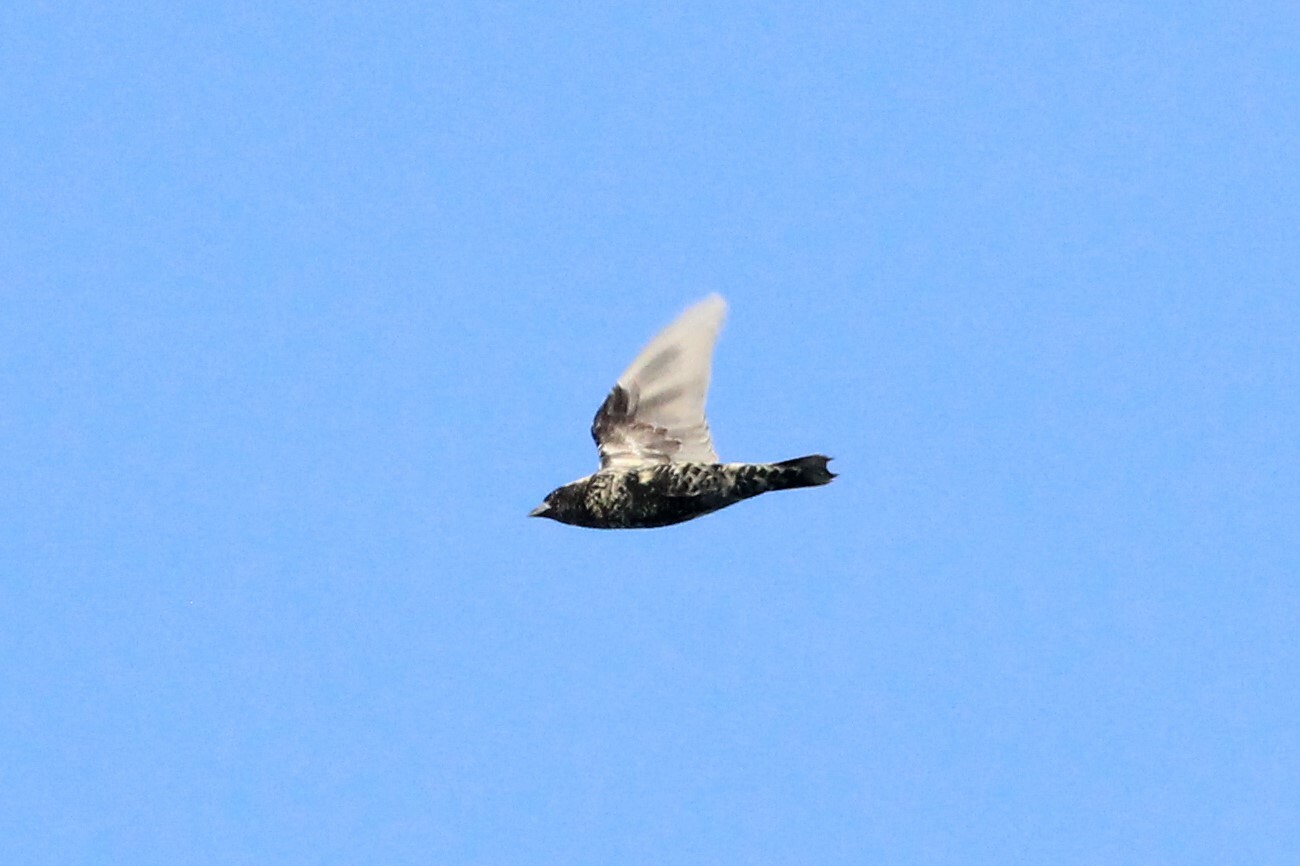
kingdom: Animalia
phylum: Chordata
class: Aves
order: Passeriformes
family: Icteridae
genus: Dolichonyx
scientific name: Dolichonyx oryzivorus
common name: Bobolink
